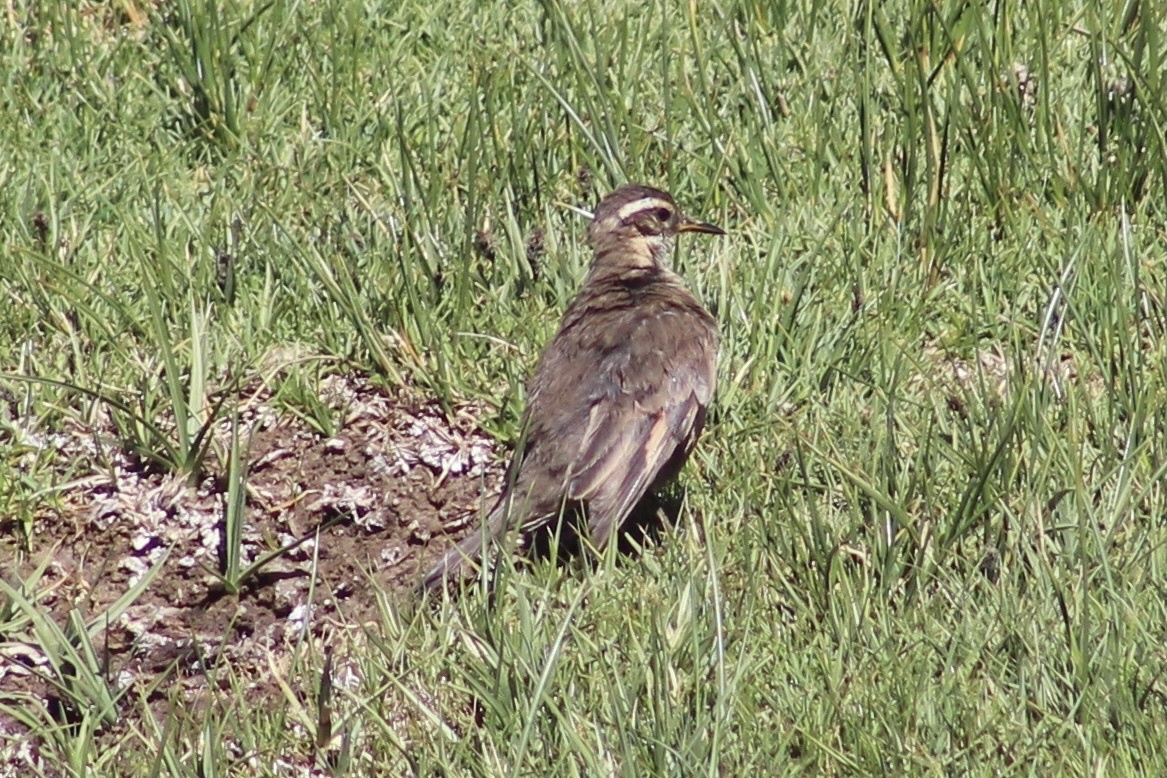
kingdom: Animalia
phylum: Chordata
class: Aves
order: Passeriformes
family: Furnariidae
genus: Cinclodes
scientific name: Cinclodes fuscus
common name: Buff-winged cinclodes
